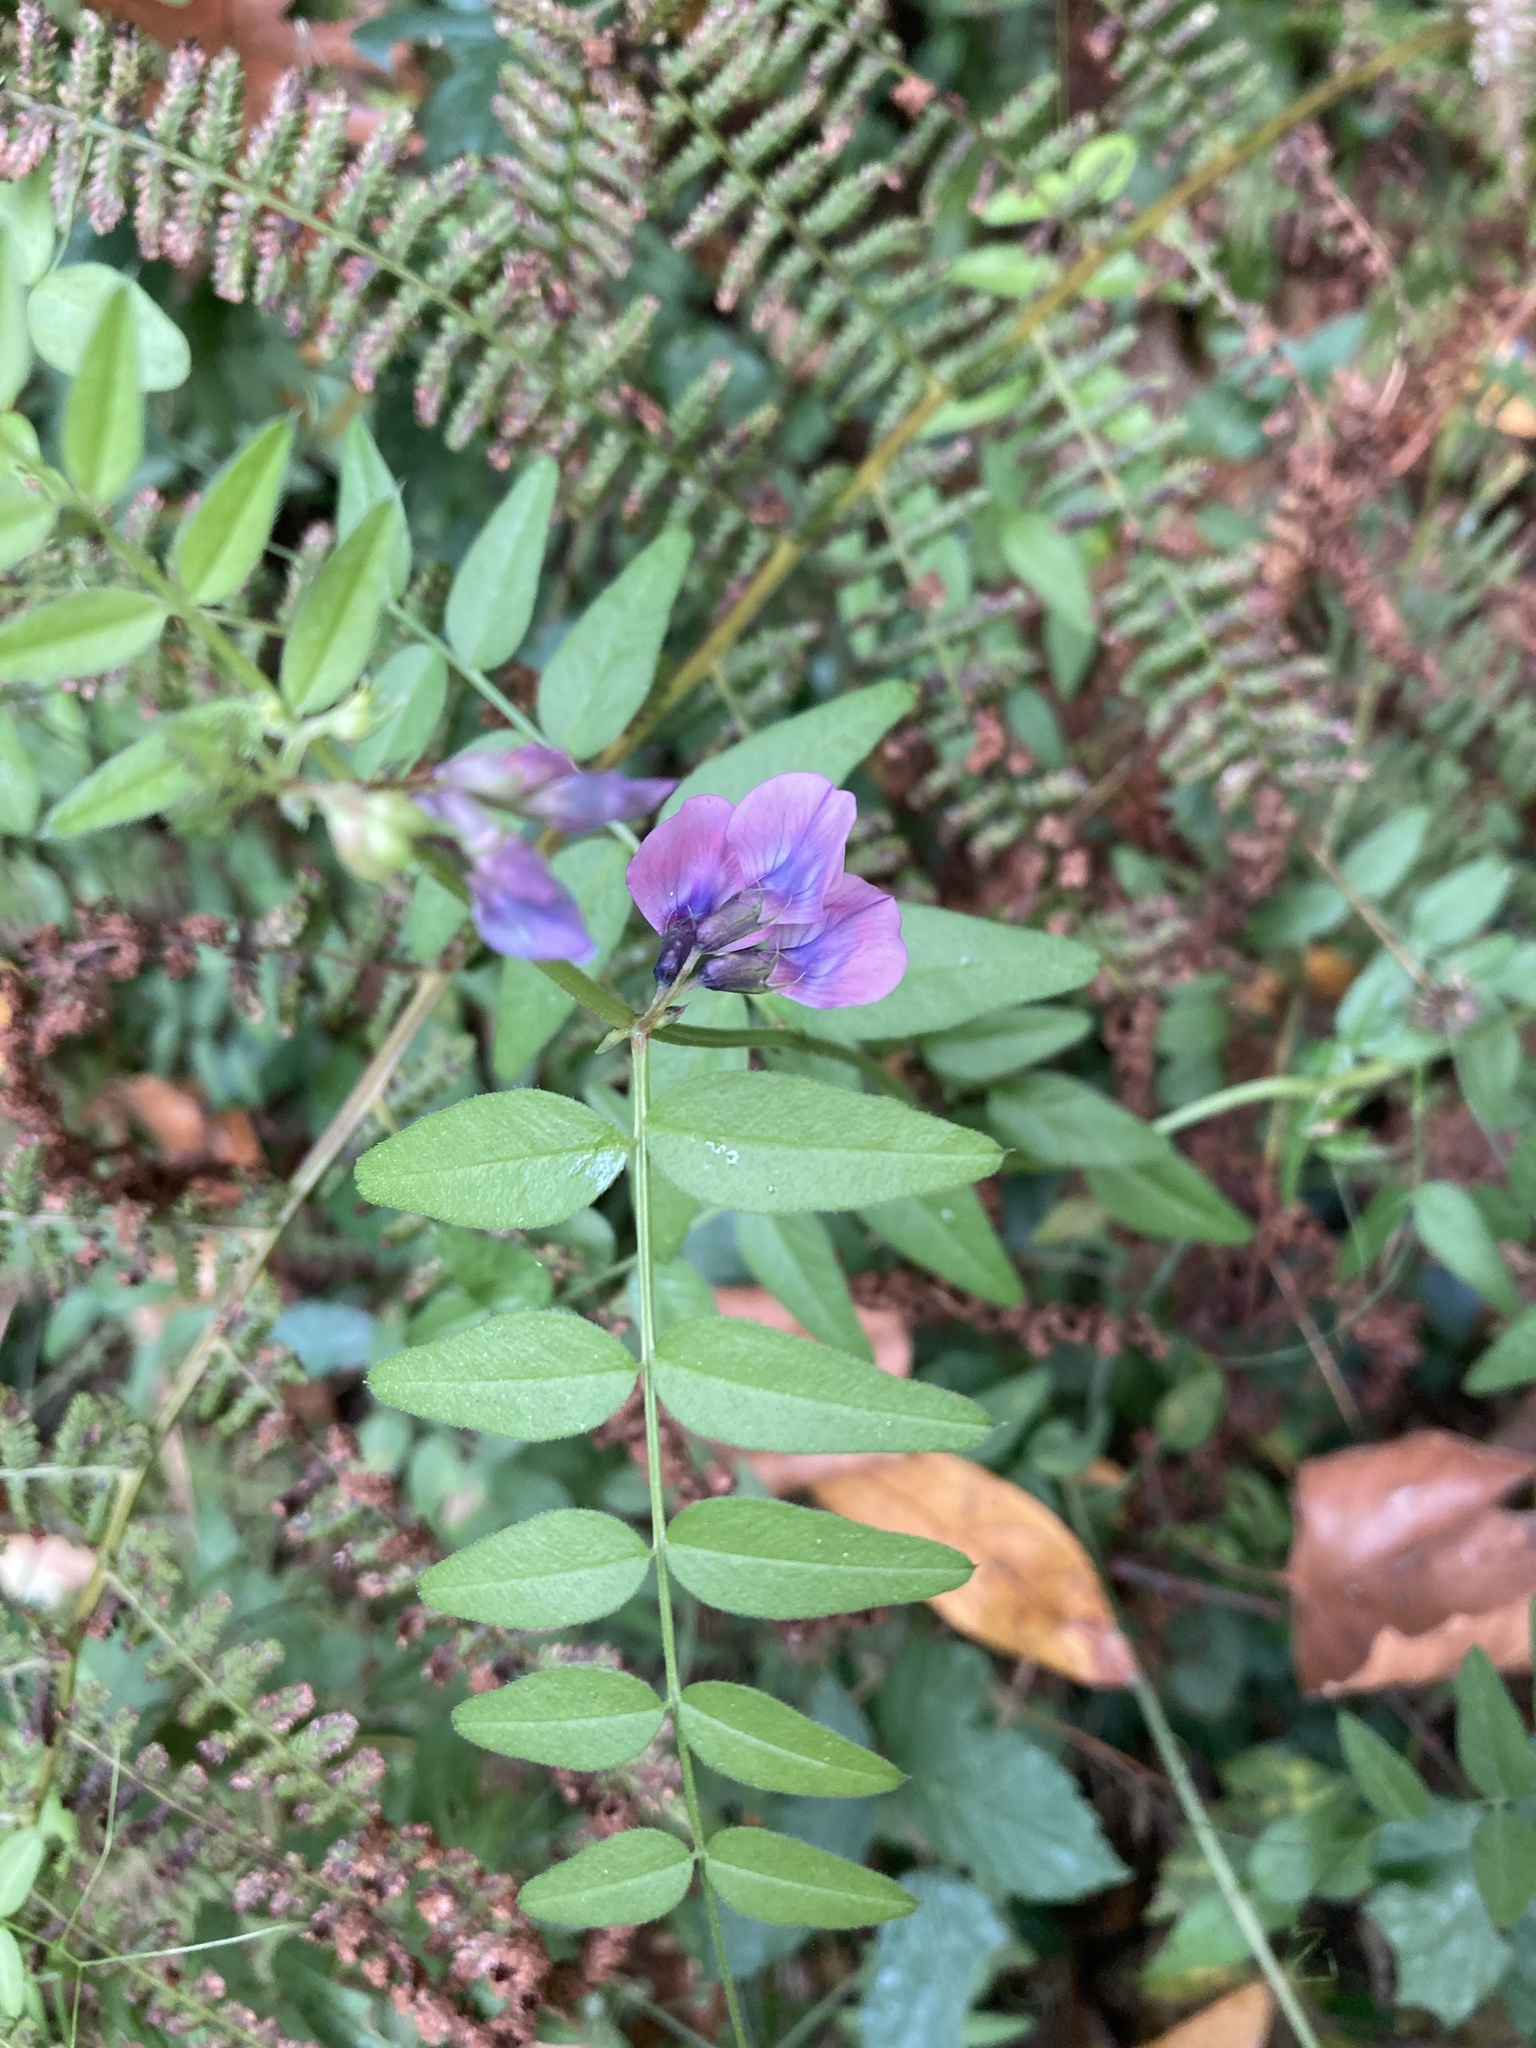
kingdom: Plantae
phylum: Tracheophyta
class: Magnoliopsida
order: Fabales
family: Fabaceae
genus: Vicia
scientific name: Vicia sepium
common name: Bush vetch
